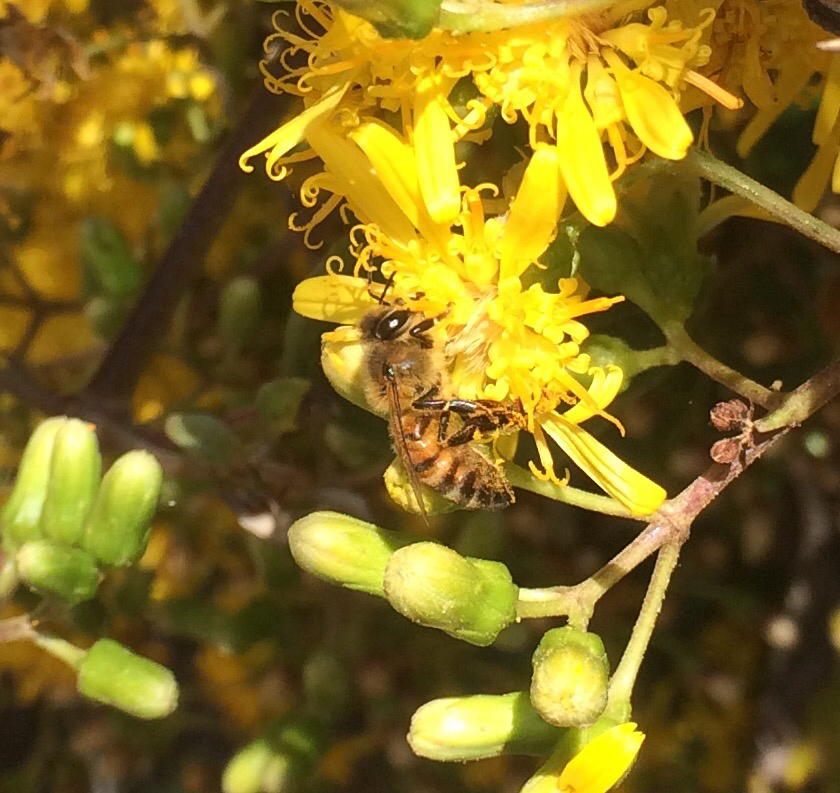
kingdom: Animalia
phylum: Arthropoda
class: Insecta
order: Hymenoptera
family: Apidae
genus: Apis
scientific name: Apis mellifera
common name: Honey bee
